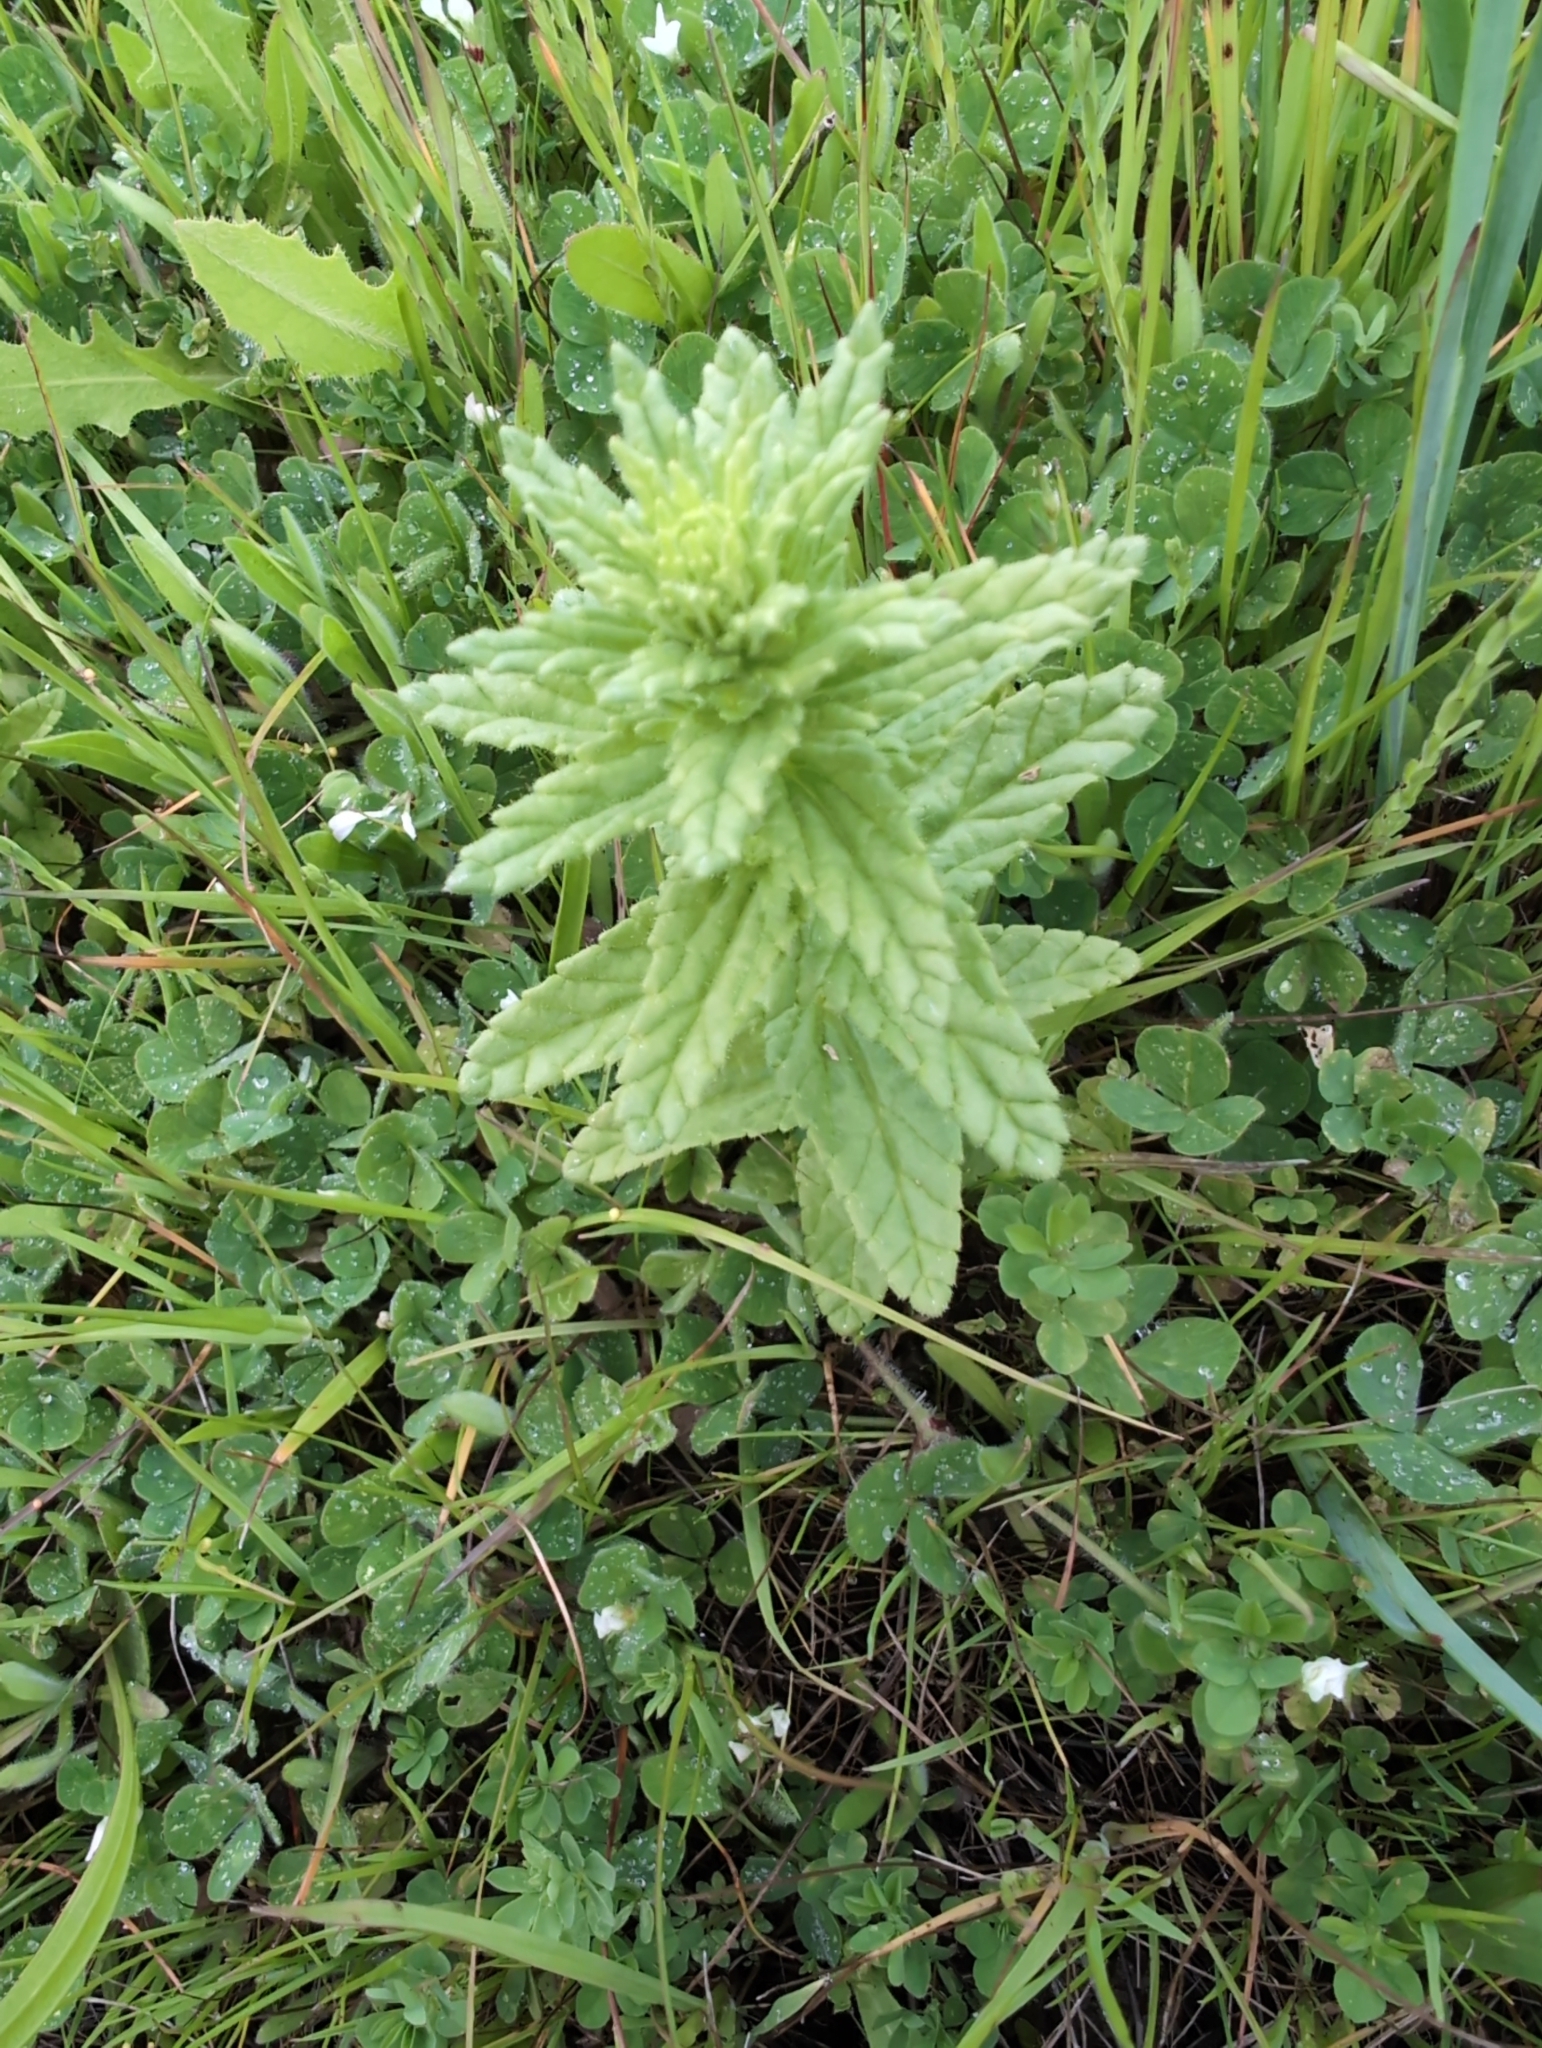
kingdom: Plantae
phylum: Tracheophyta
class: Magnoliopsida
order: Lamiales
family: Orobanchaceae
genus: Bellardia
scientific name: Bellardia viscosa
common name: Sticky parentucellia
